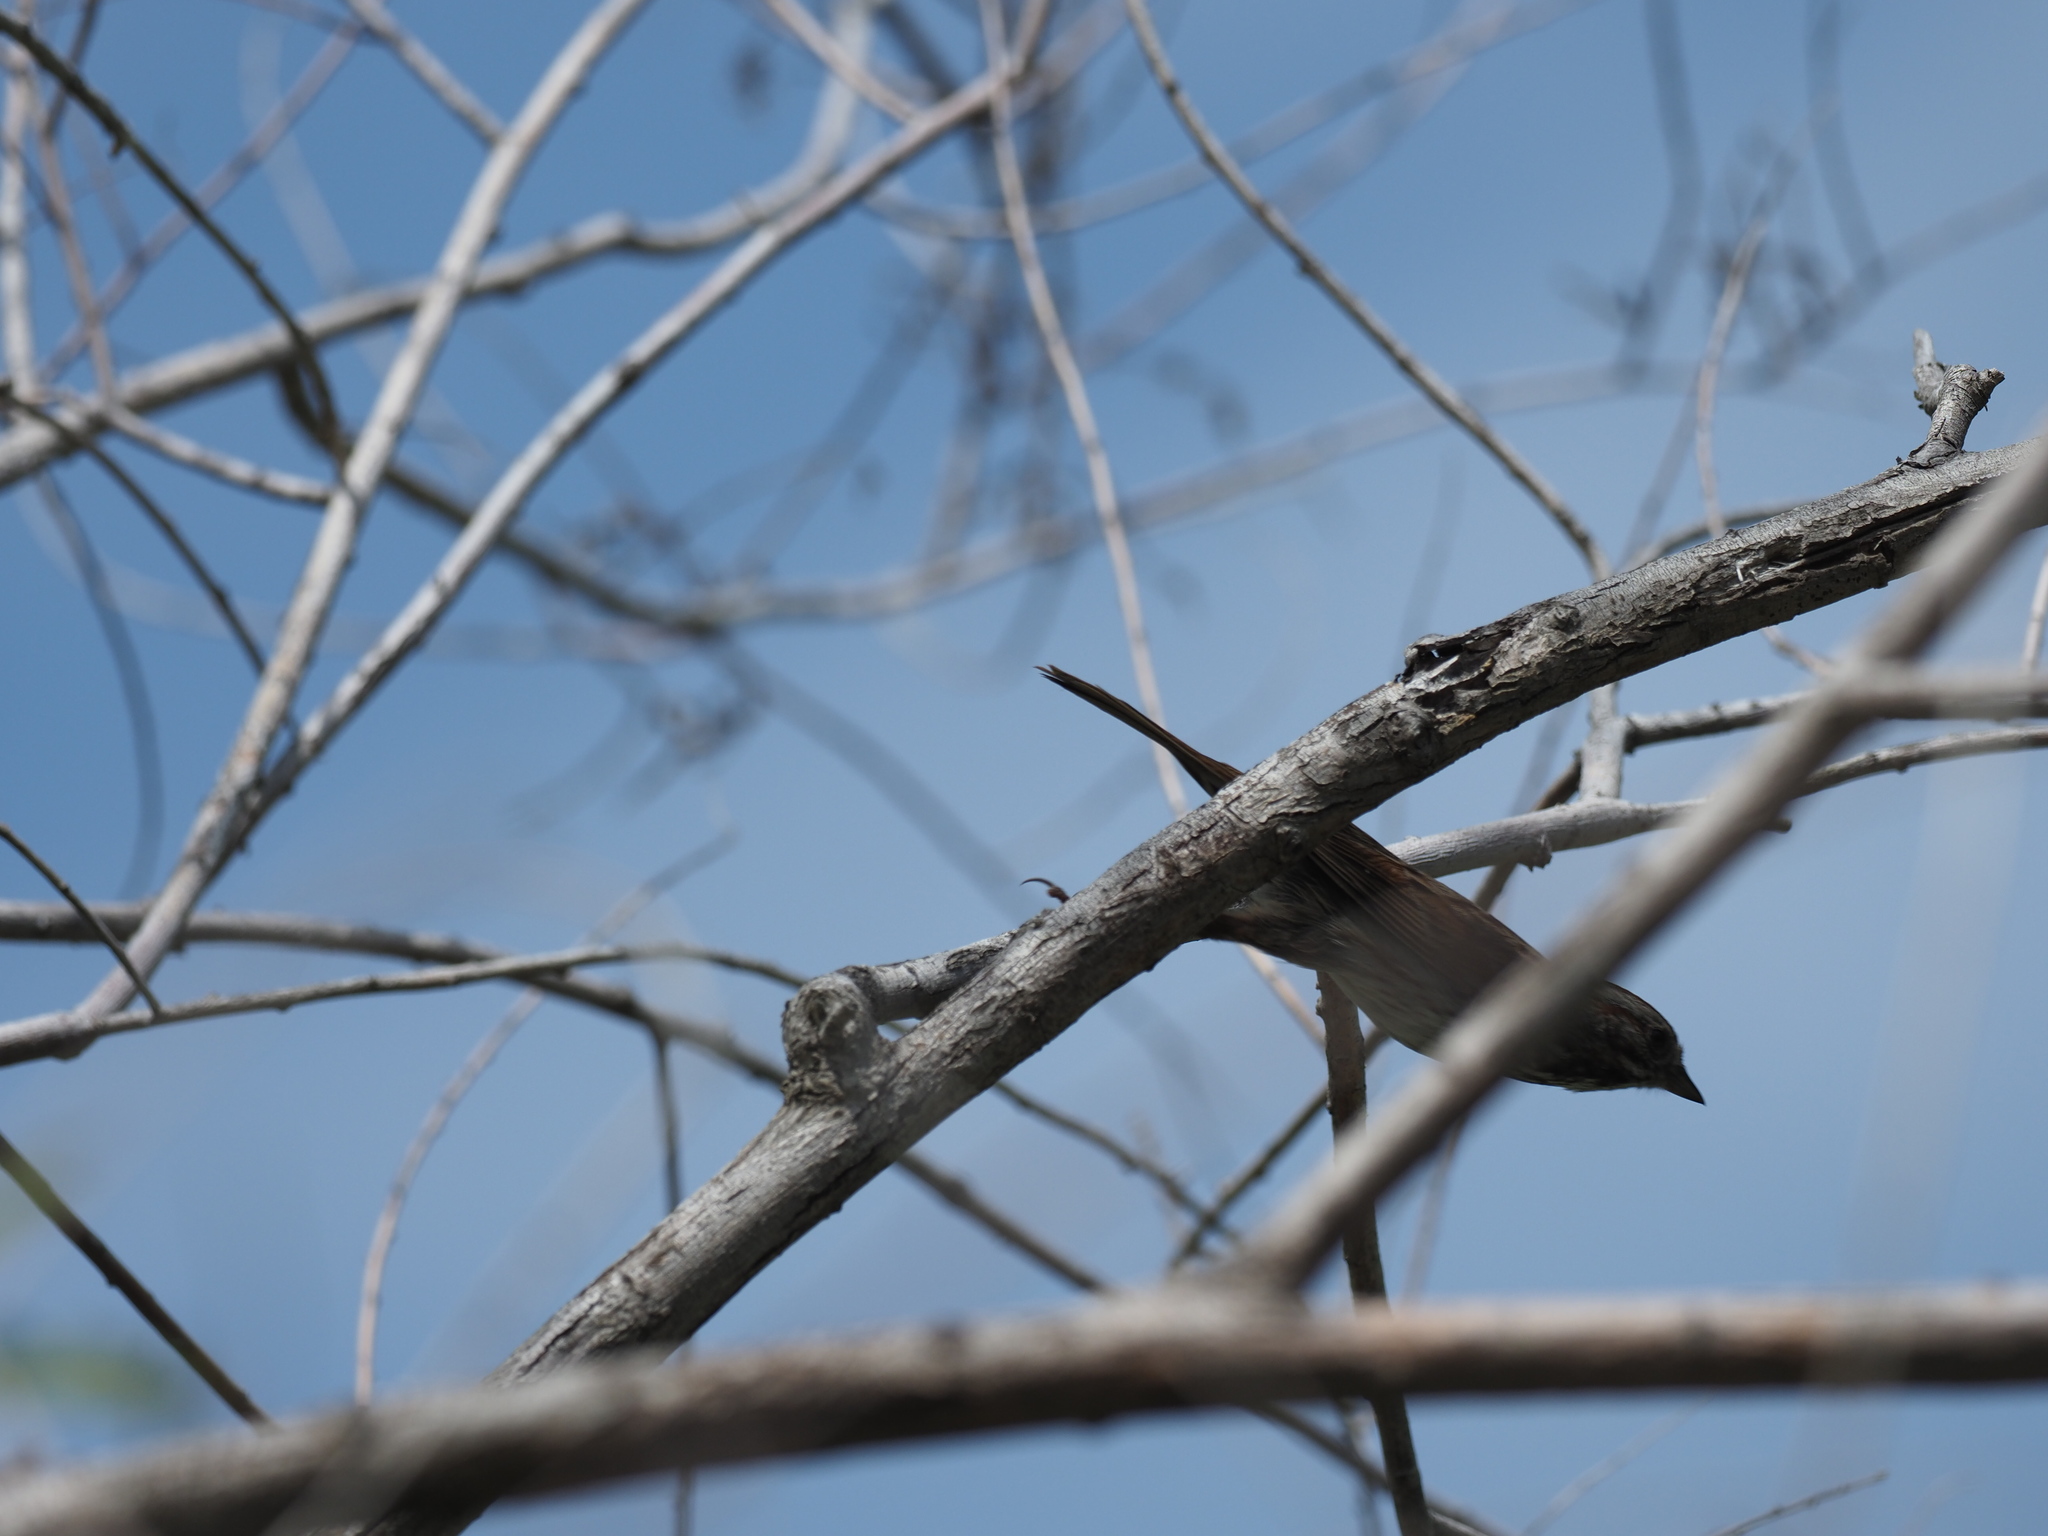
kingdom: Animalia
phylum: Chordata
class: Aves
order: Passeriformes
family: Passerellidae
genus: Melospiza
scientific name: Melospiza melodia
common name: Song sparrow
